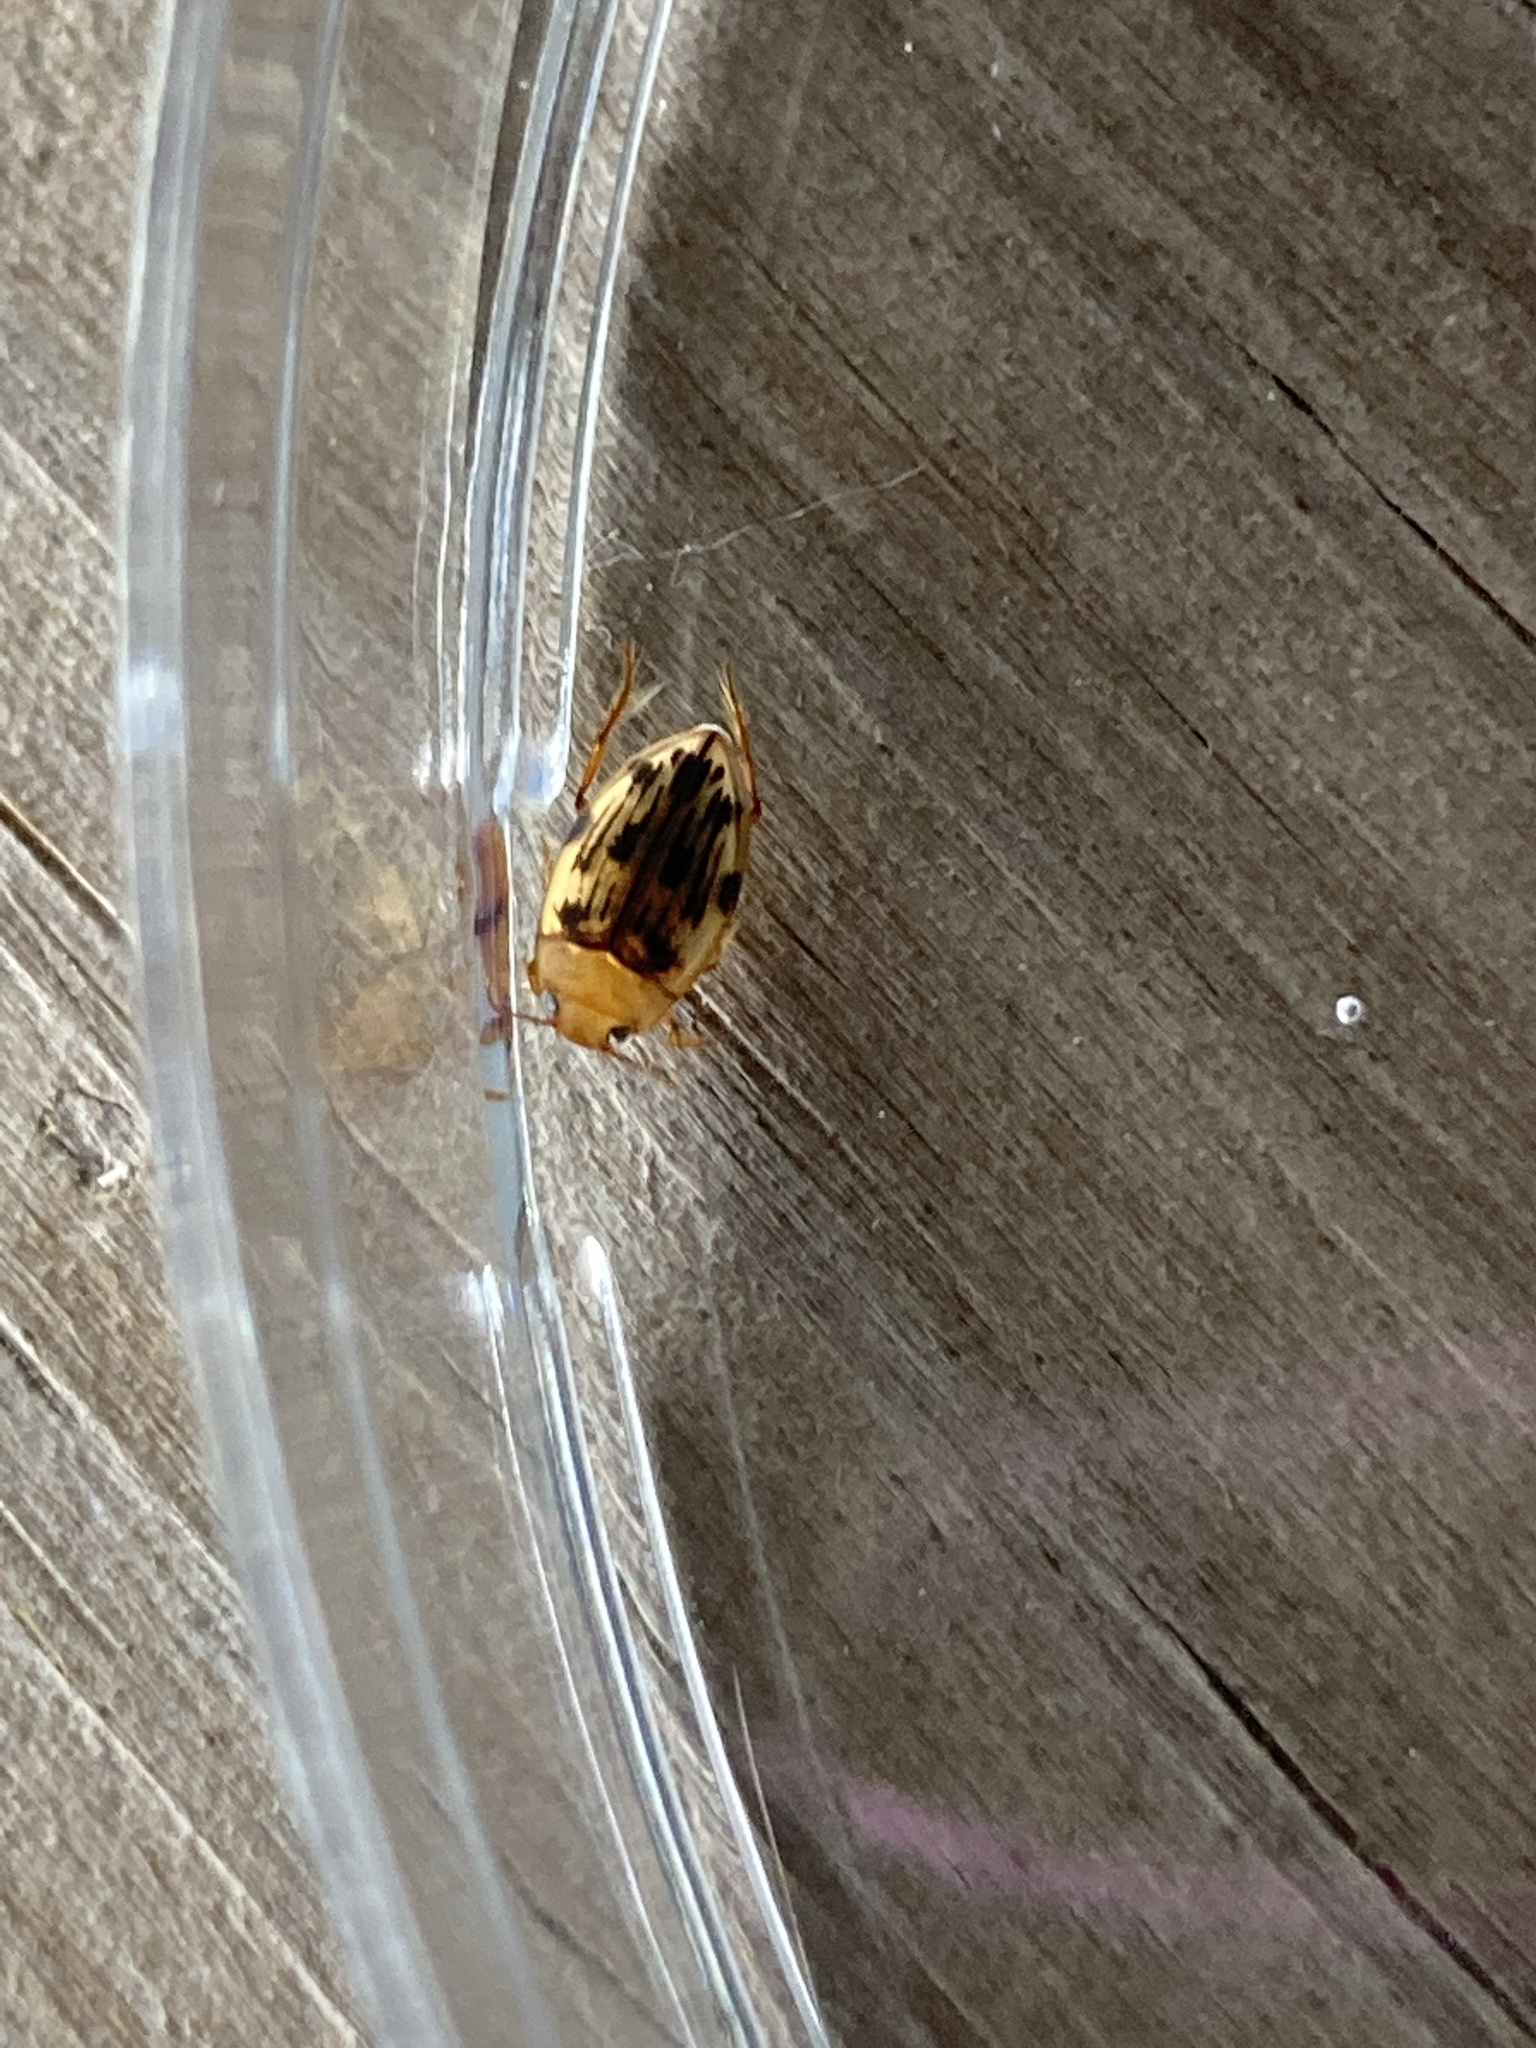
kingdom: Animalia
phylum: Arthropoda
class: Insecta
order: Coleoptera
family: Dytiscidae
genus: Neoporus
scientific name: Neoporus dimidiatus
